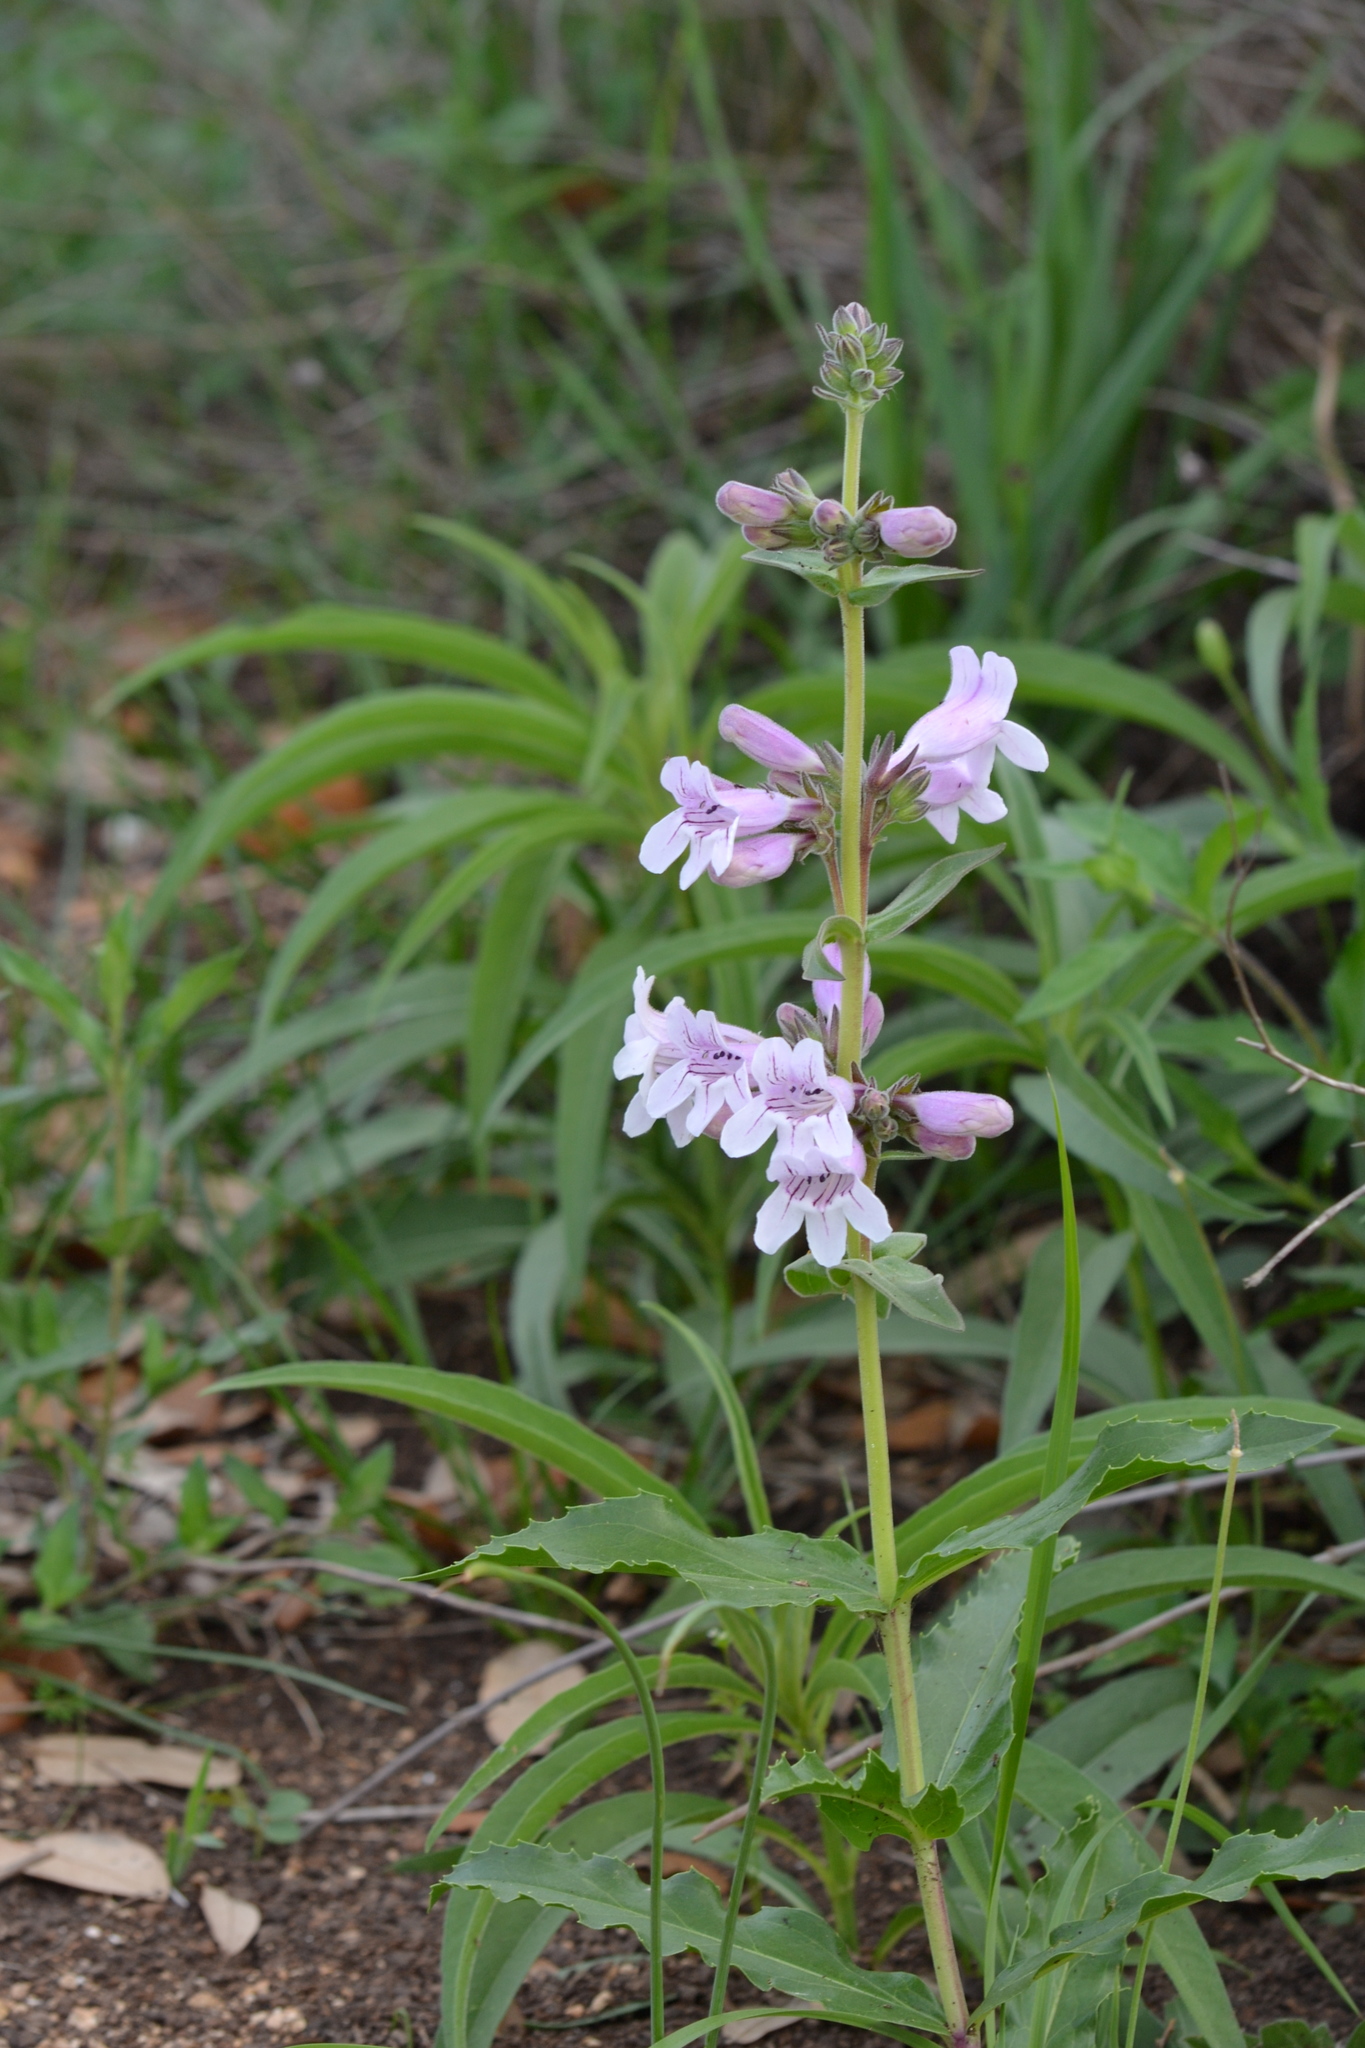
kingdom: Plantae
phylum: Tracheophyta
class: Magnoliopsida
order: Lamiales
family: Plantaginaceae
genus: Penstemon
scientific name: Penstemon cobaea
